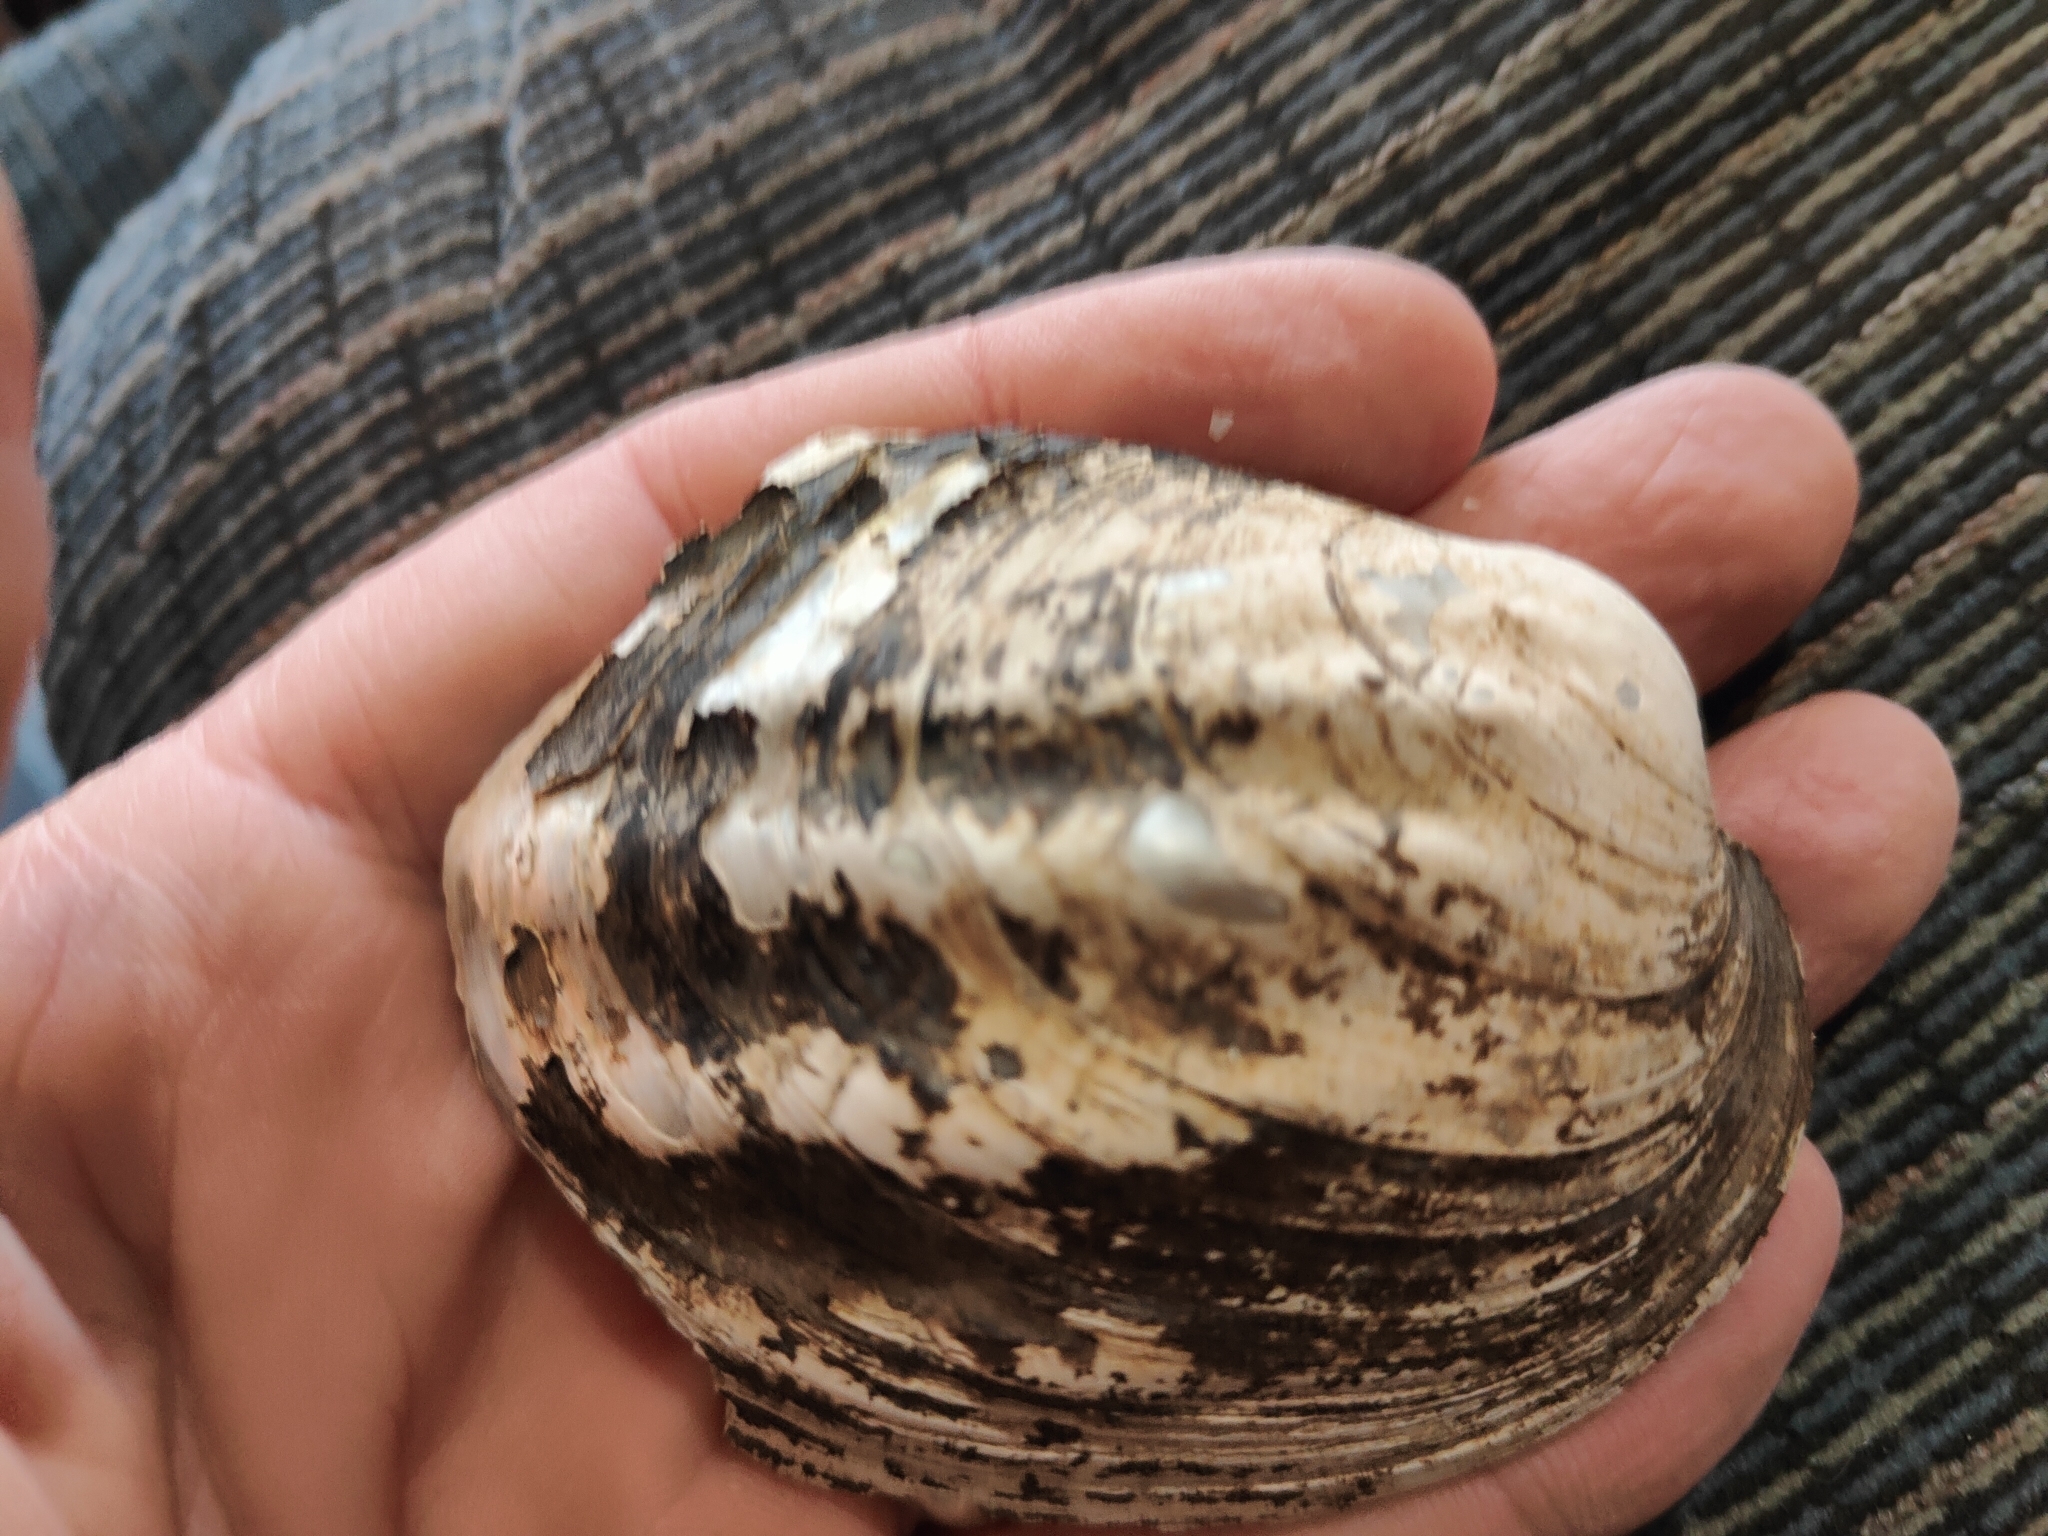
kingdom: Animalia
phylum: Mollusca
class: Bivalvia
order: Unionida
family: Unionidae
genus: Amblema
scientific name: Amblema plicata
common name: Threeridge
